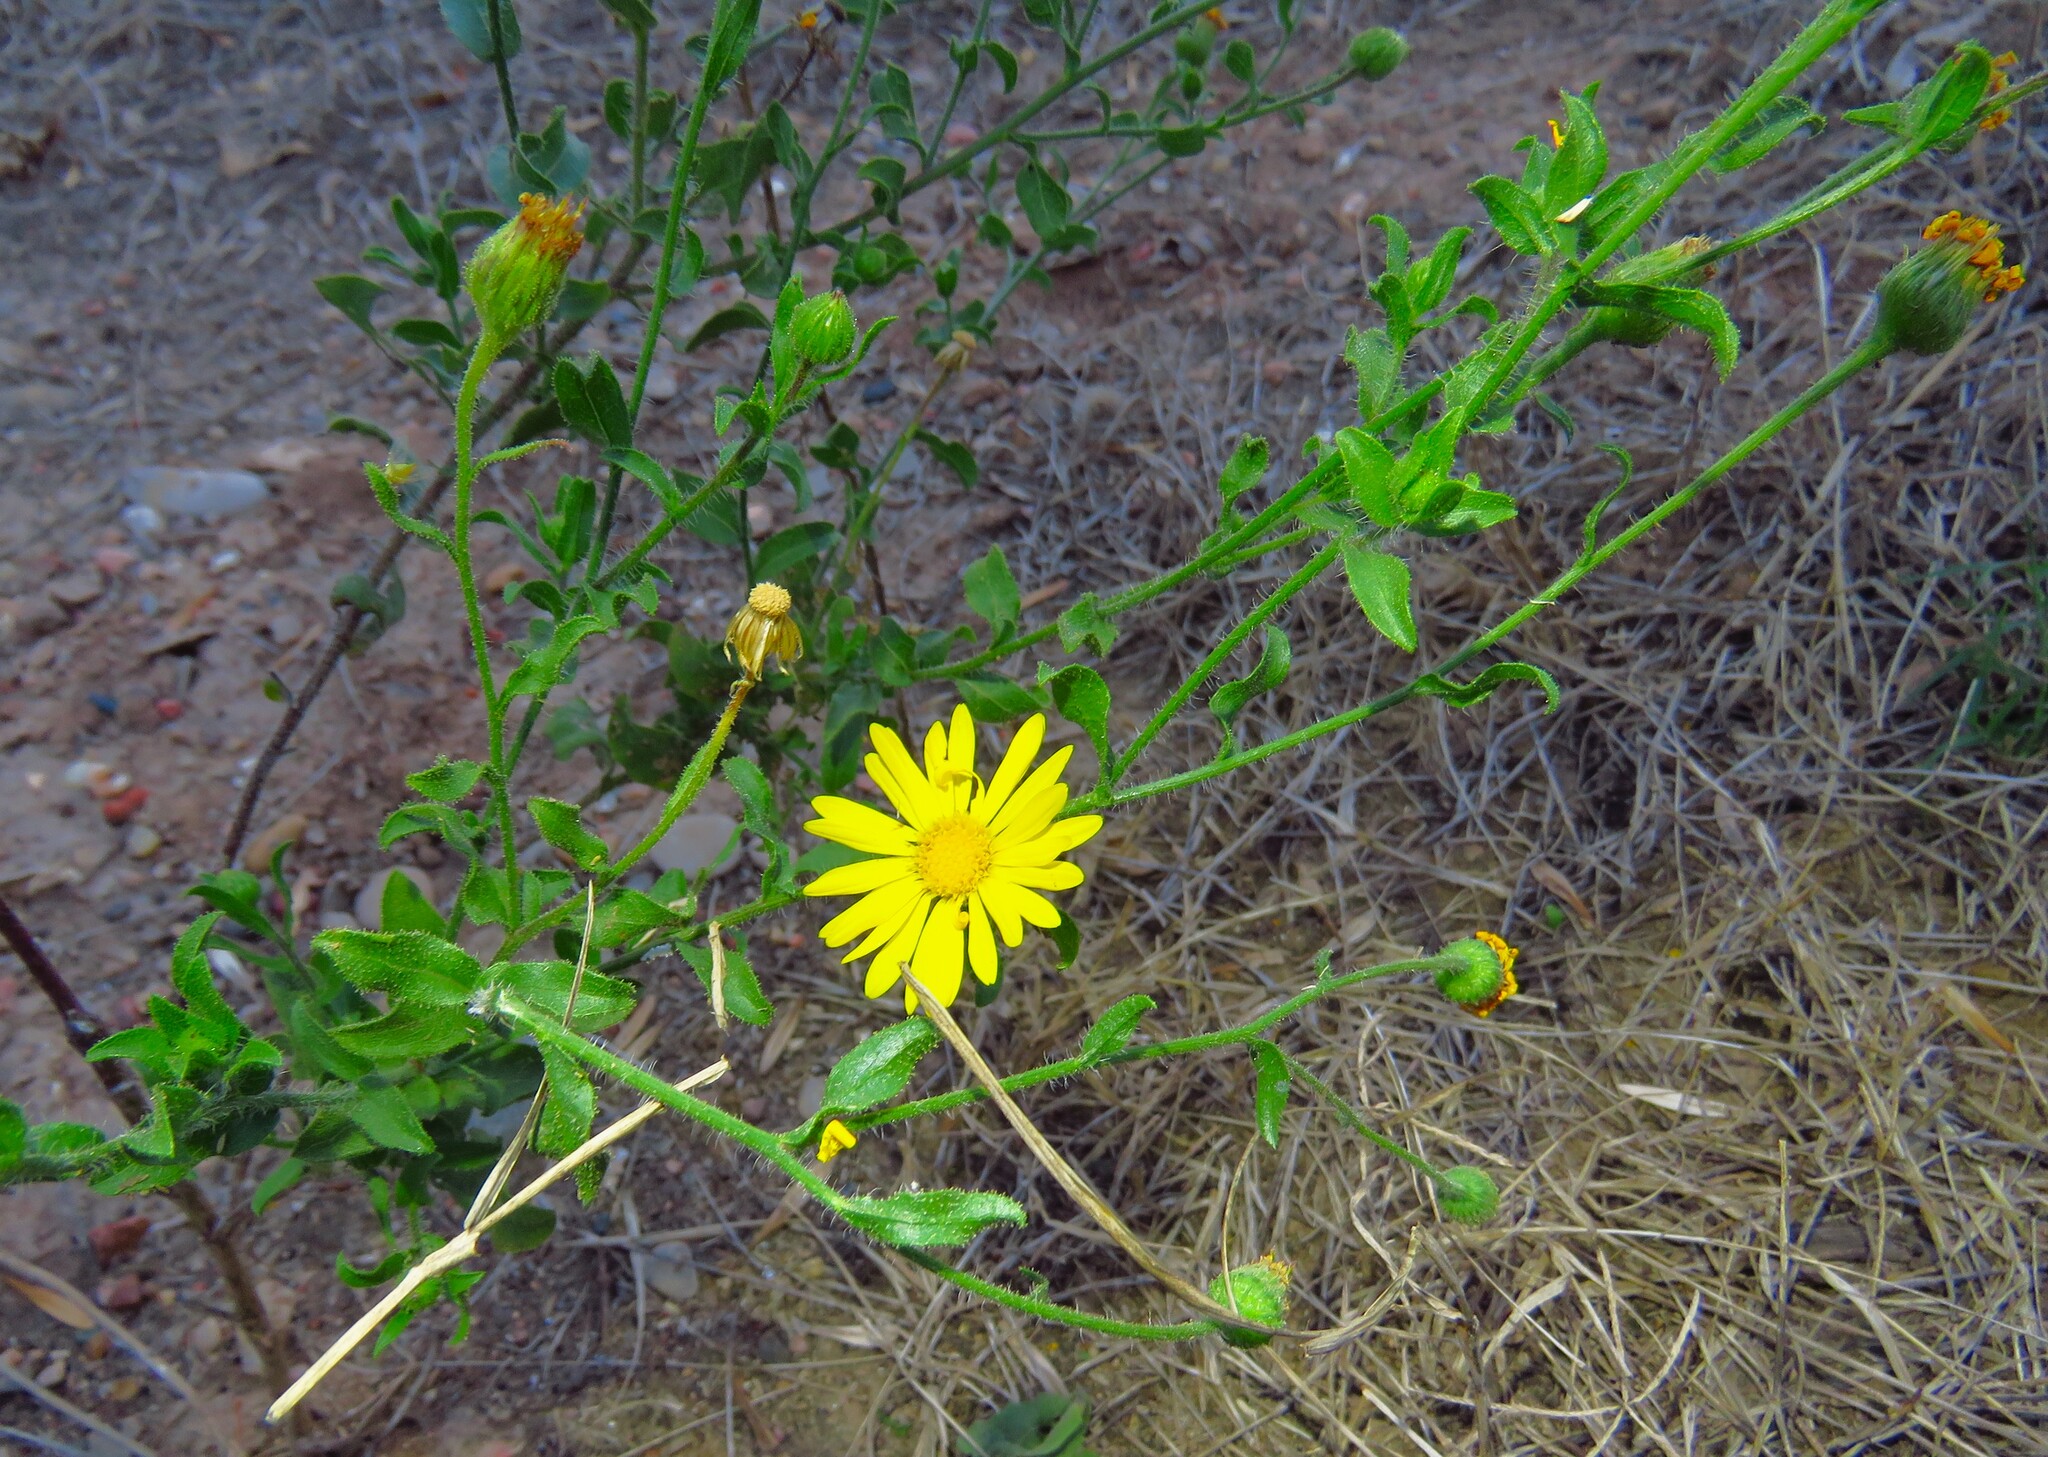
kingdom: Plantae
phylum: Tracheophyta
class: Magnoliopsida
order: Asterales
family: Asteraceae
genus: Heterotheca
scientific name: Heterotheca subaxillaris
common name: Camphorweed
